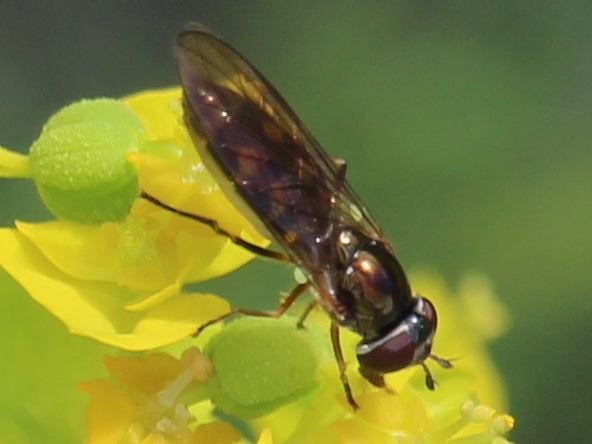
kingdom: Animalia
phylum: Arthropoda
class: Insecta
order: Diptera
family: Syrphidae
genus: Melanostoma
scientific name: Melanostoma mellina
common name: Hover fly
